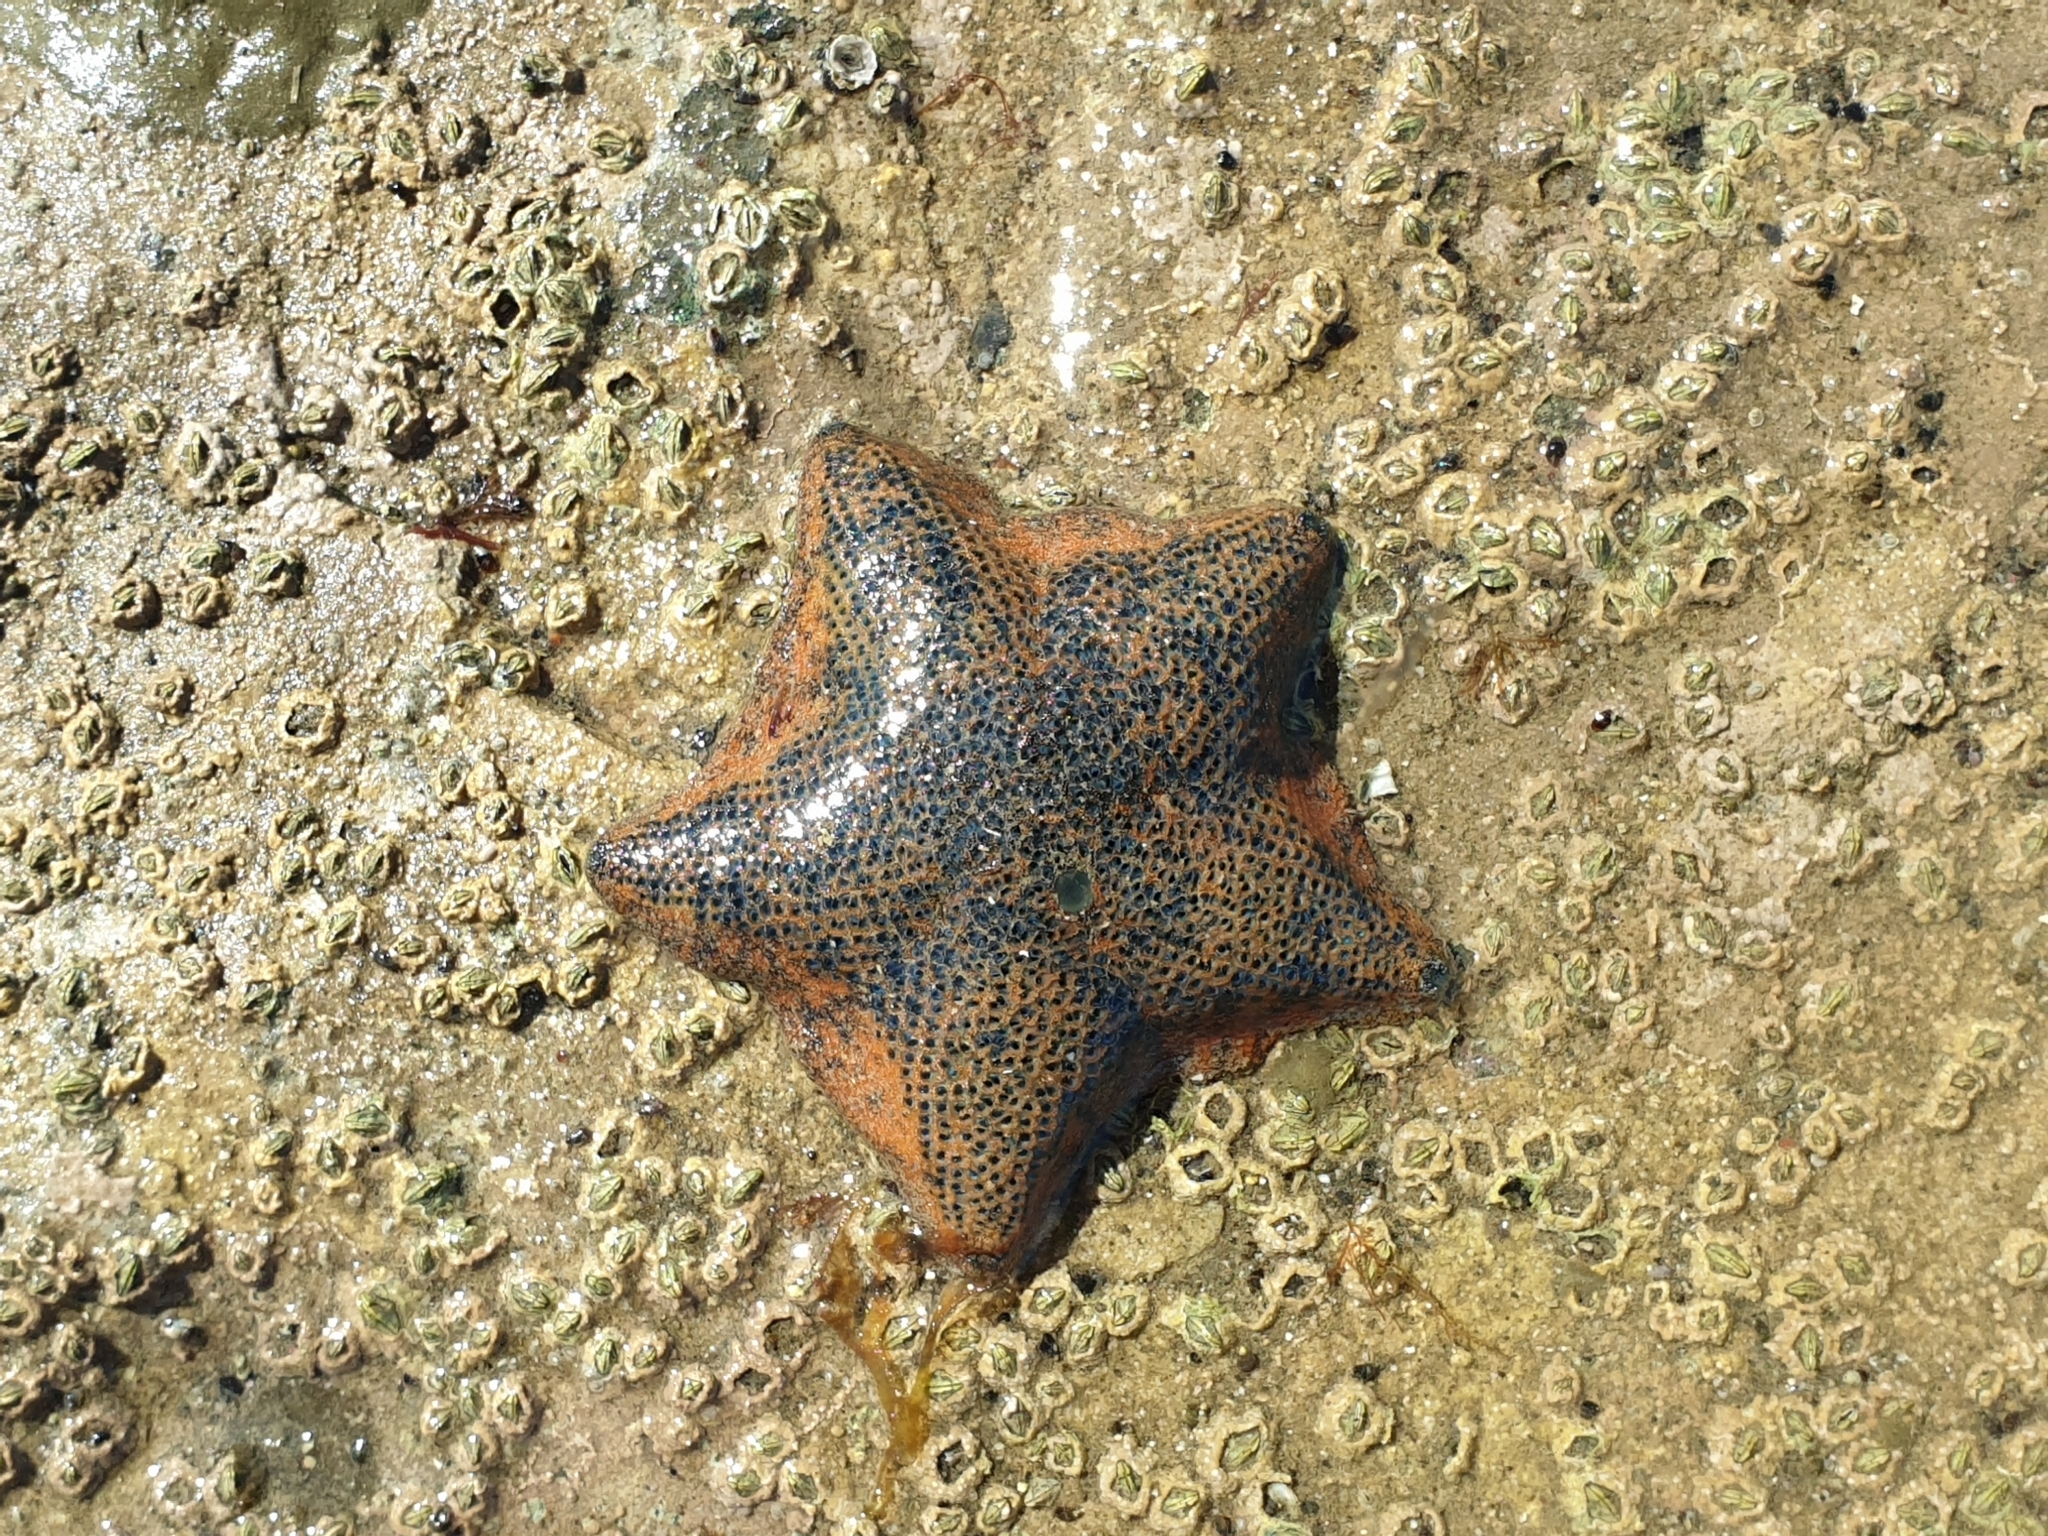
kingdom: Animalia
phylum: Echinodermata
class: Asteroidea
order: Valvatida
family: Asterinidae
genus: Patiriella
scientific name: Patiriella regularis
